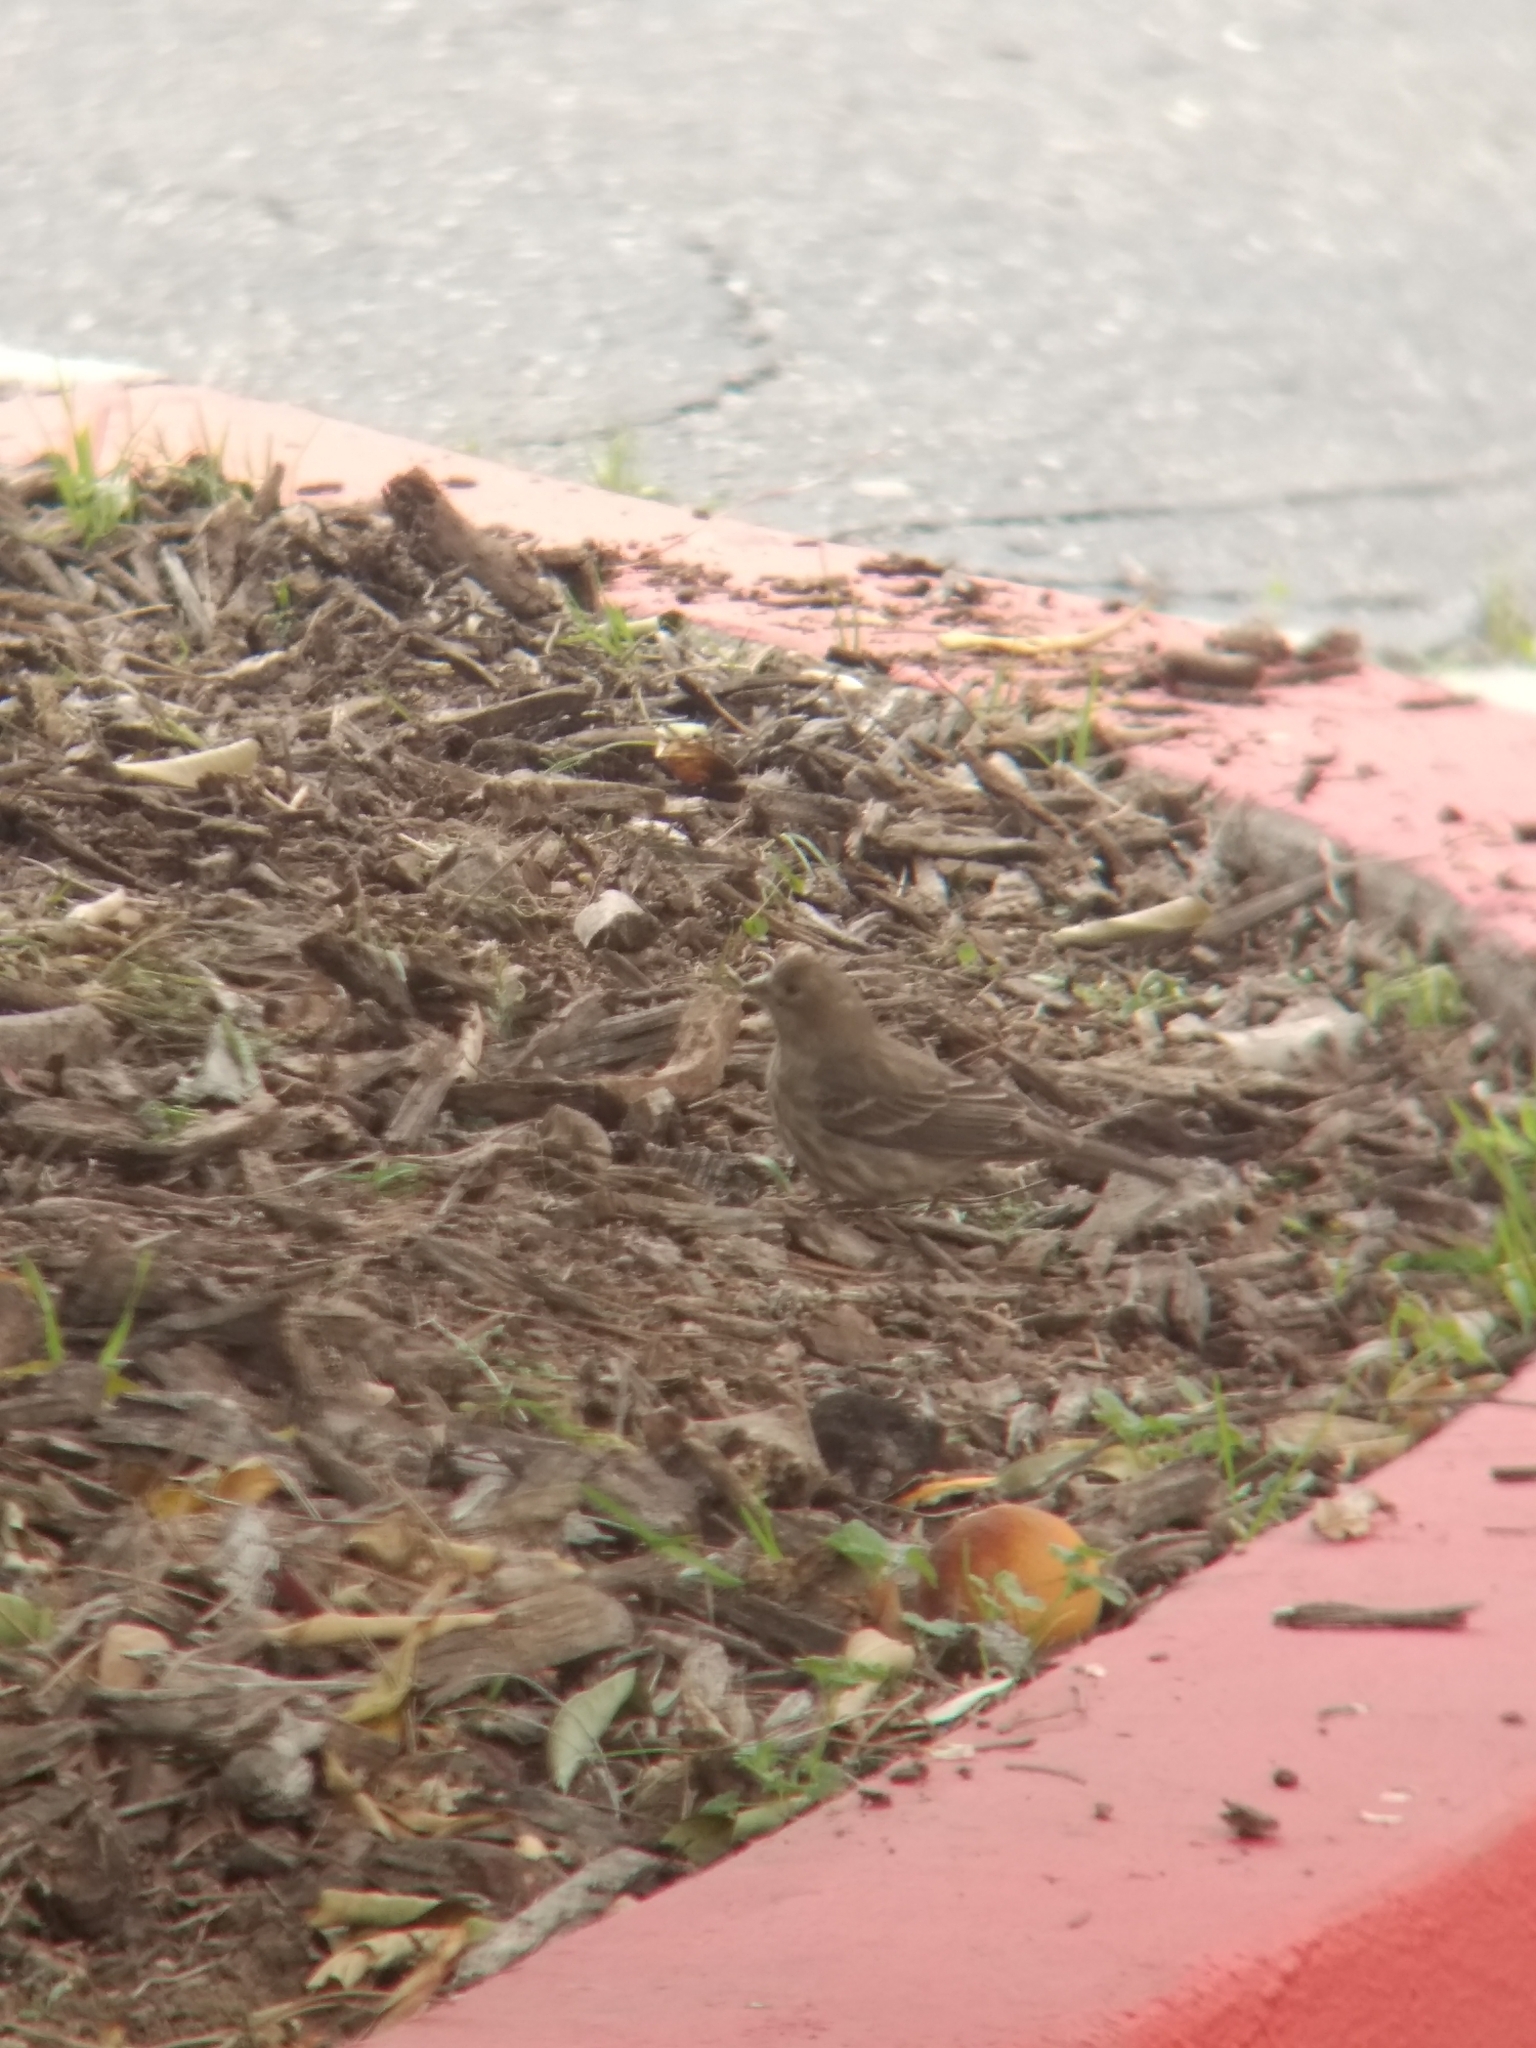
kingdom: Animalia
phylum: Chordata
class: Aves
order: Passeriformes
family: Fringillidae
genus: Haemorhous
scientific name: Haemorhous mexicanus
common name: House finch
